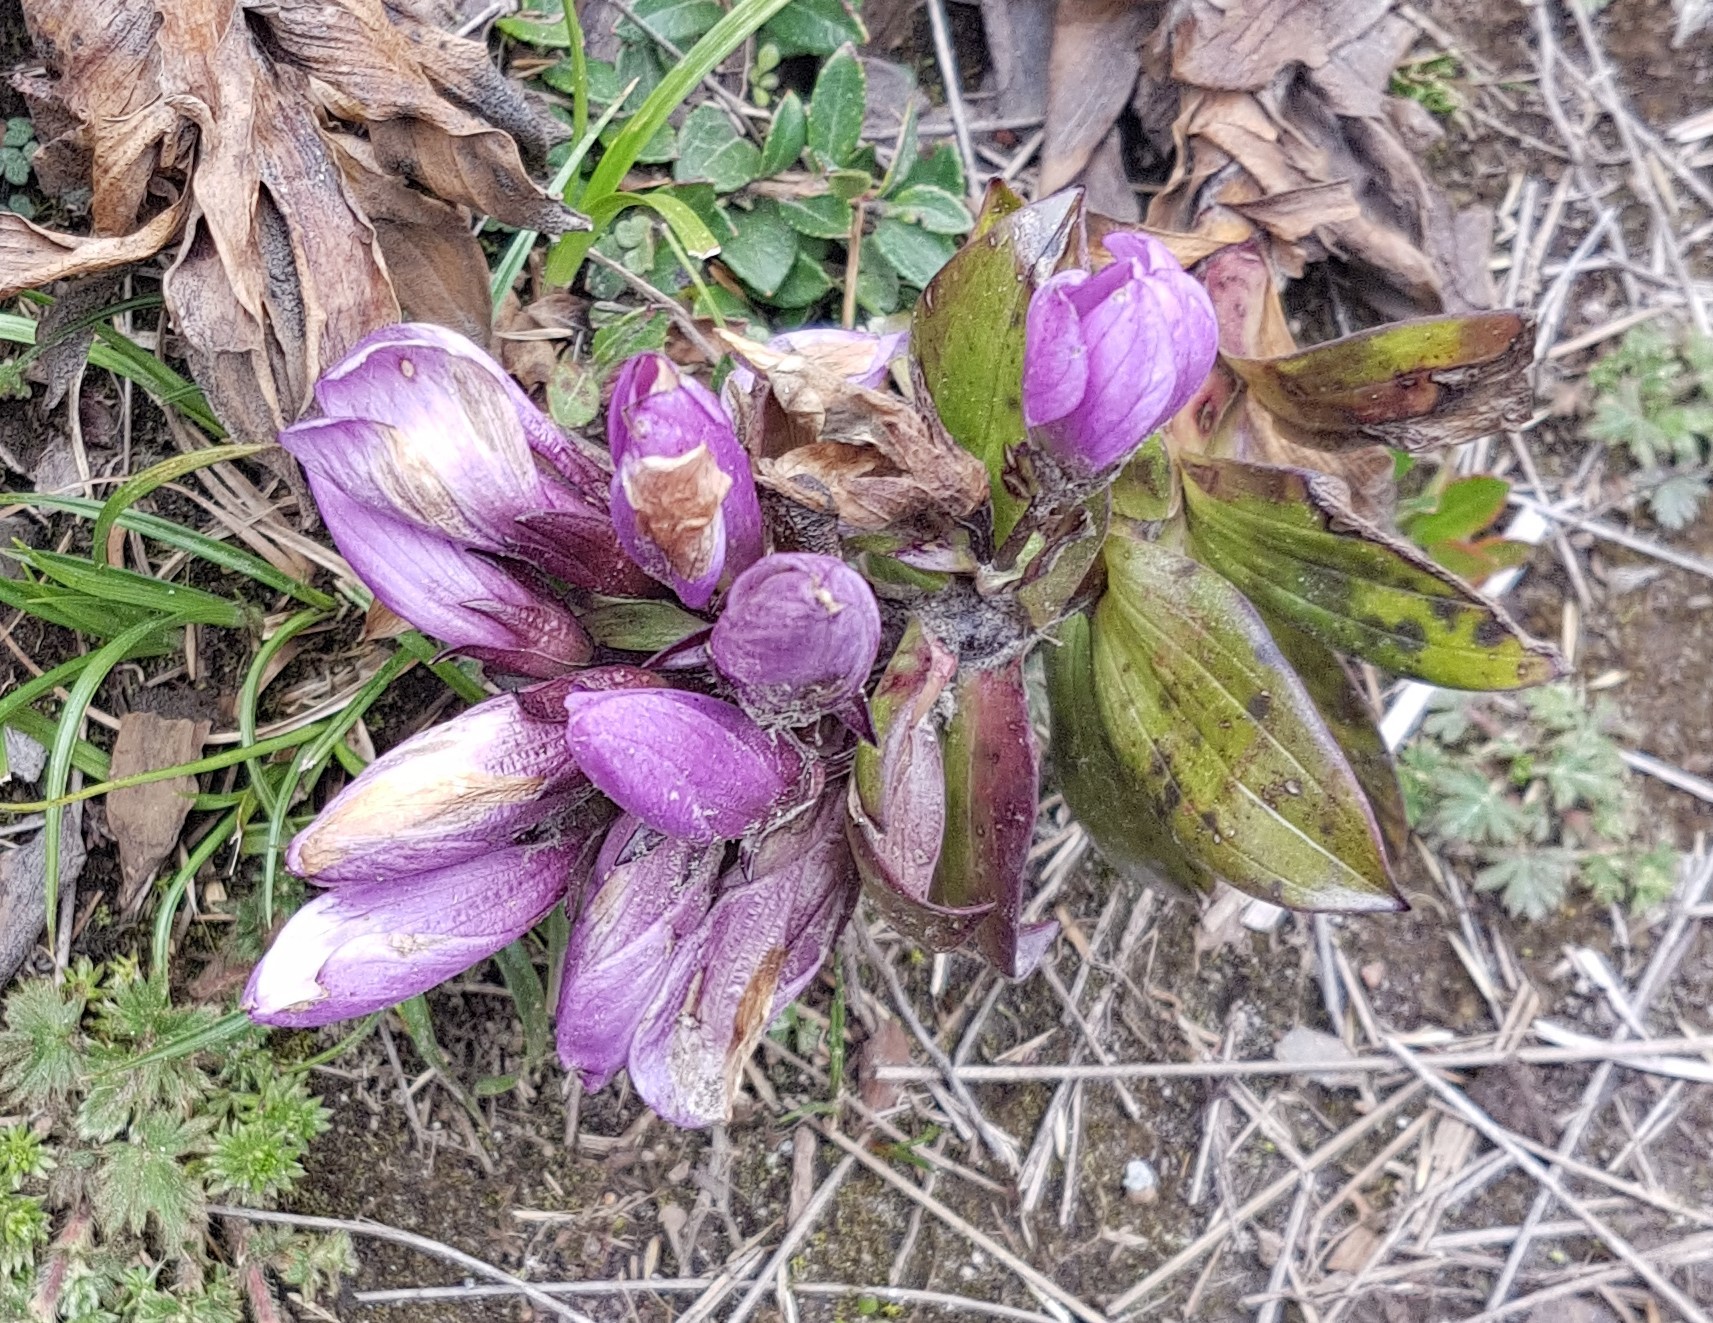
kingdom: Plantae
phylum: Tracheophyta
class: Magnoliopsida
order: Gentianales
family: Gentianaceae
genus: Gentianella
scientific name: Gentianella foliosa
